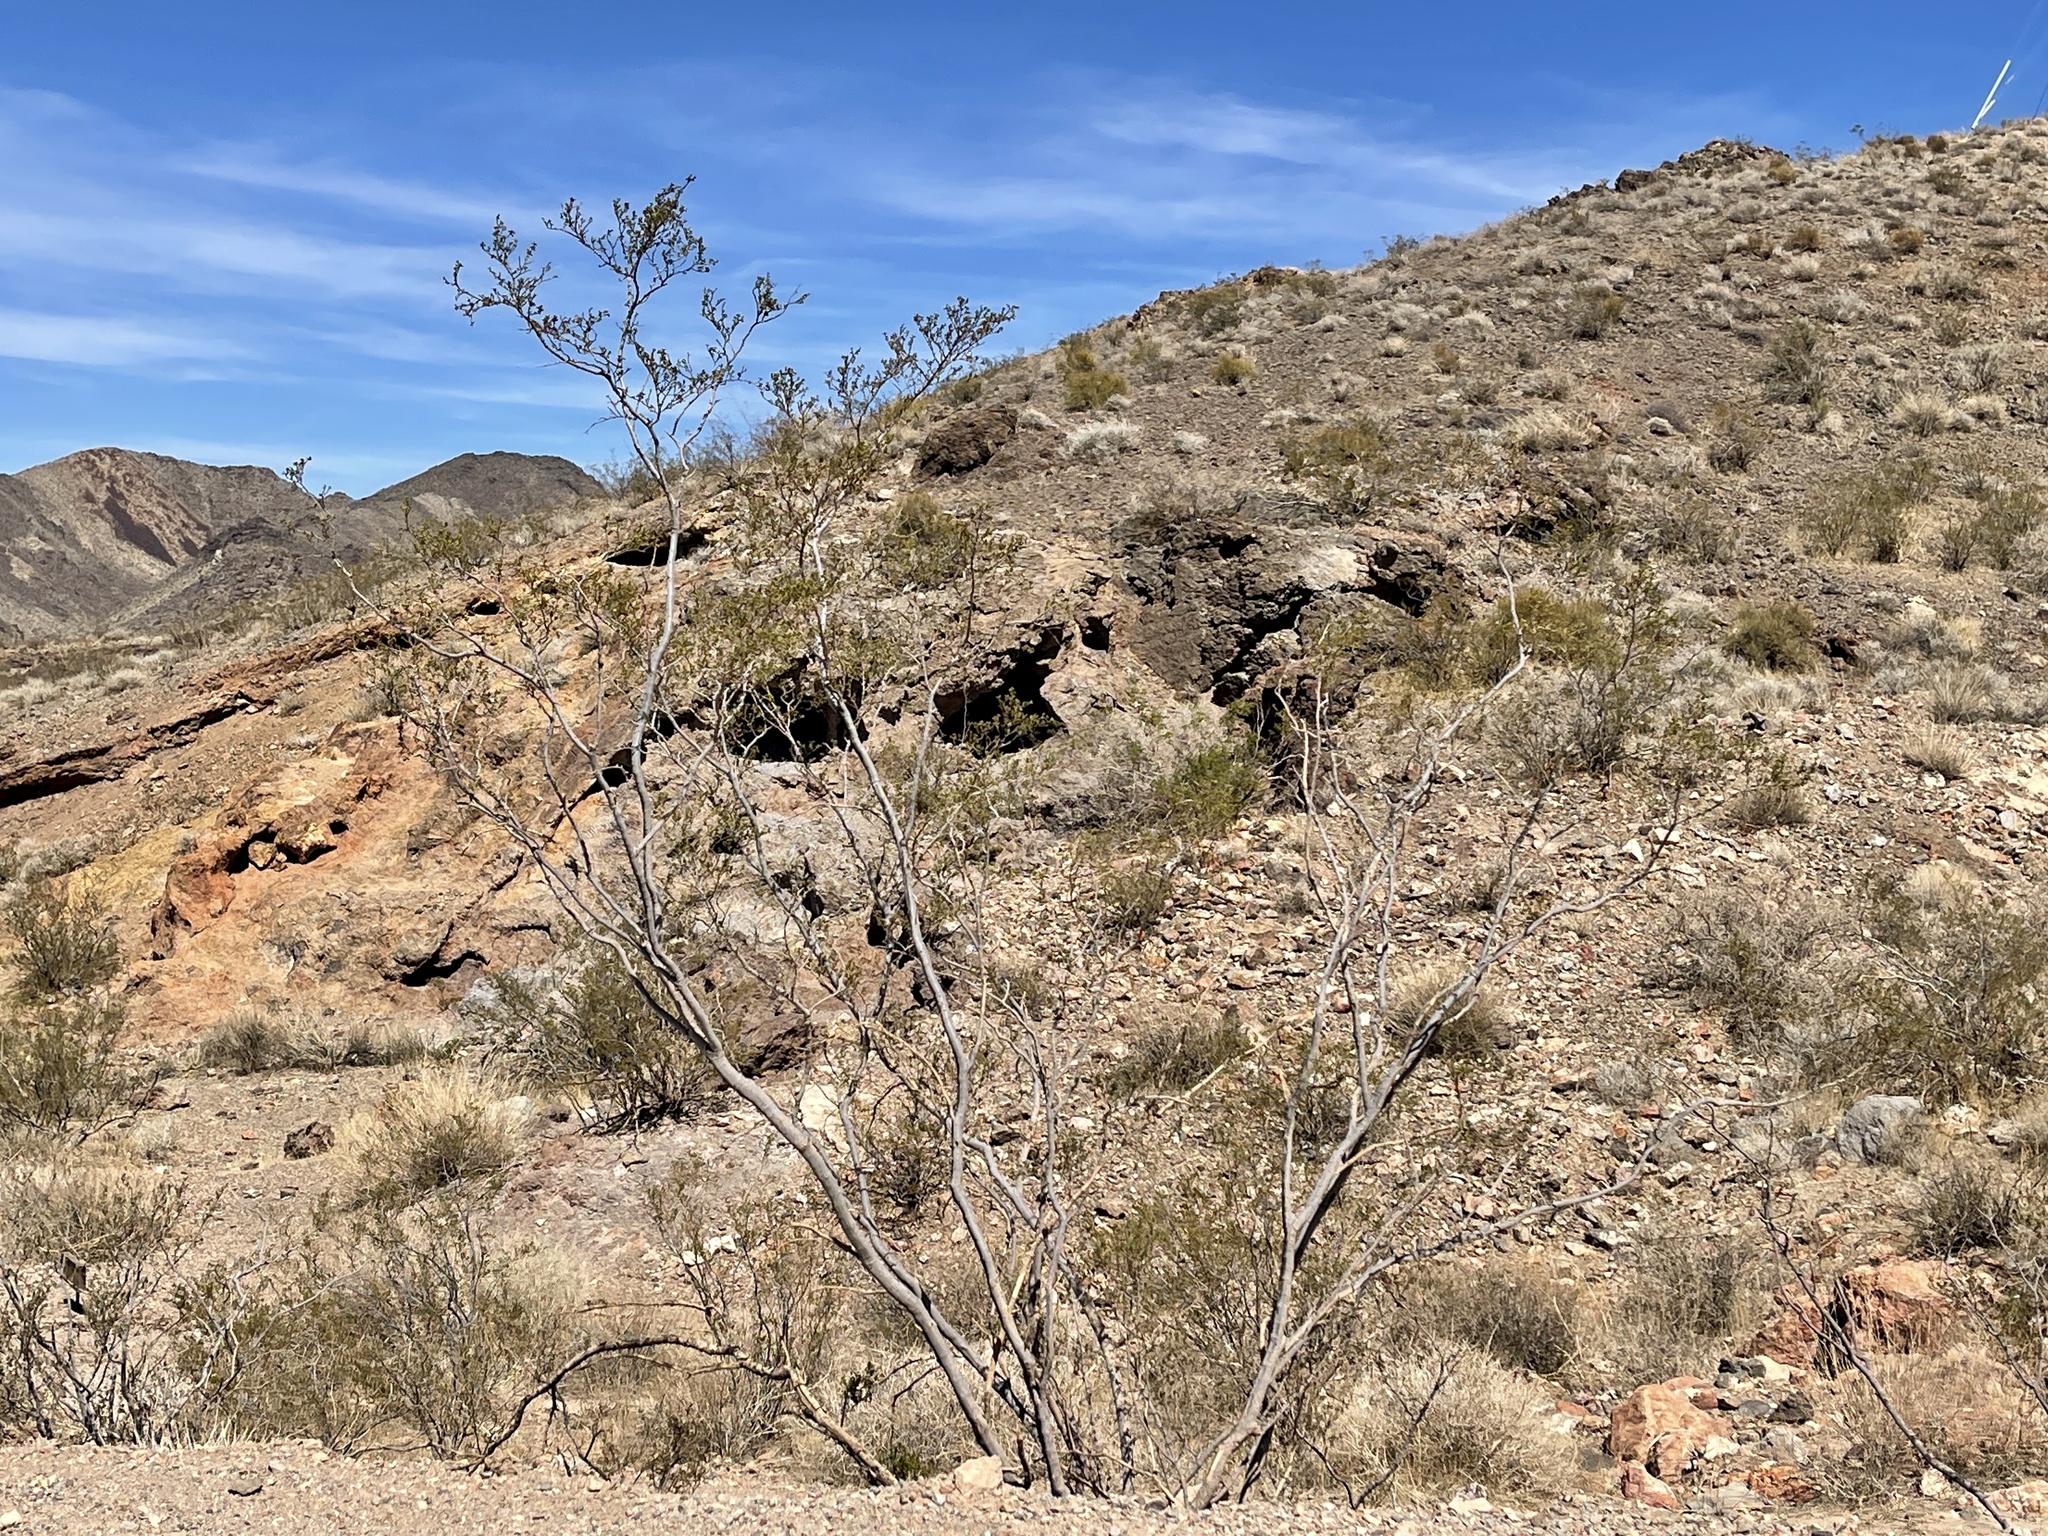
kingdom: Plantae
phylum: Tracheophyta
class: Magnoliopsida
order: Zygophyllales
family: Zygophyllaceae
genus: Larrea
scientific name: Larrea tridentata
